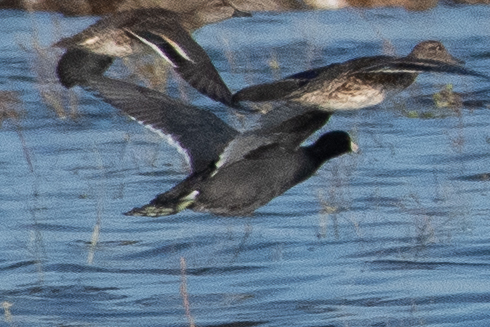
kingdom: Animalia
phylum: Chordata
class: Aves
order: Gruiformes
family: Rallidae
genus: Fulica
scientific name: Fulica americana
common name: American coot
